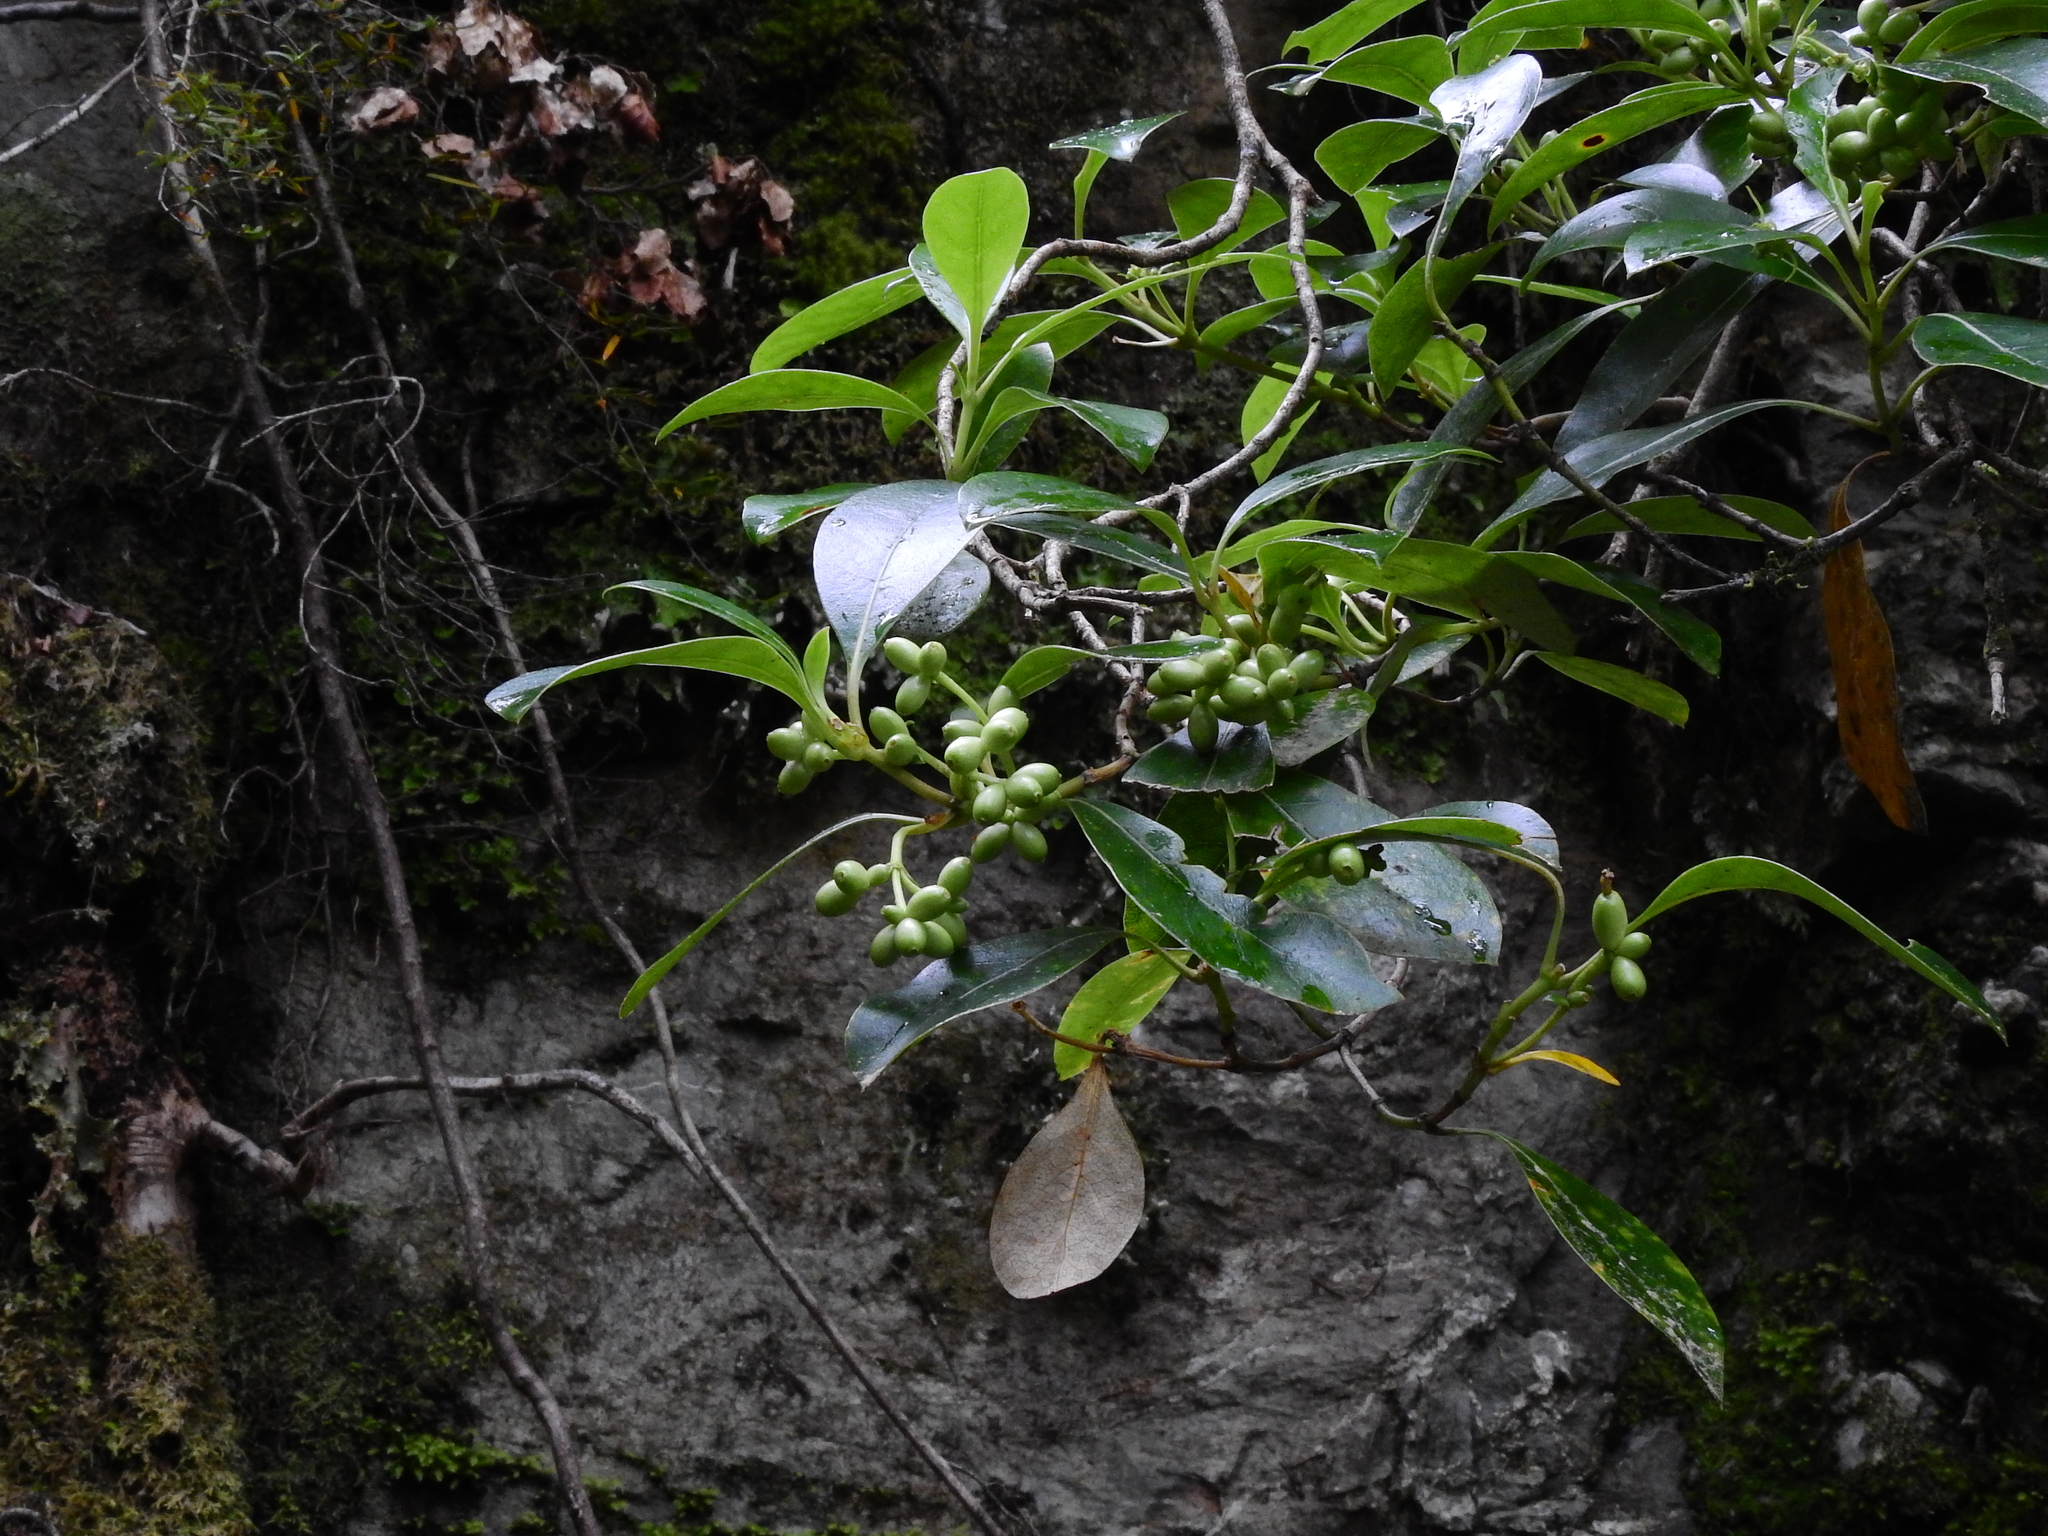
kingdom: Plantae
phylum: Tracheophyta
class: Magnoliopsida
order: Gentianales
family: Rubiaceae
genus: Coprosma
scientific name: Coprosma lucida
